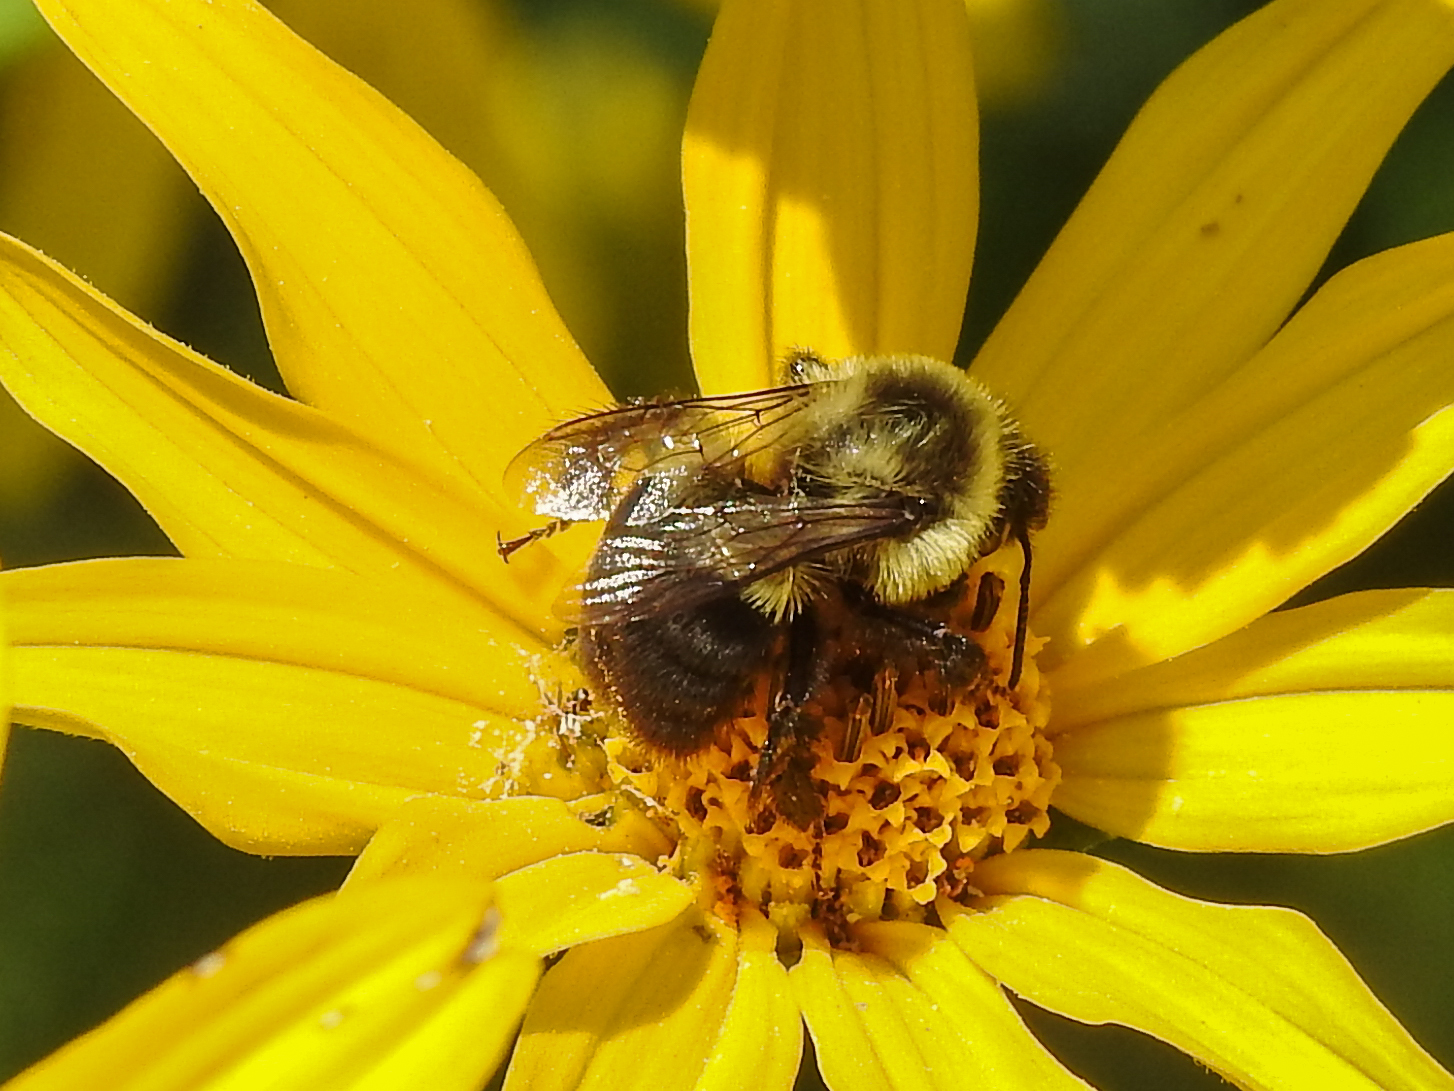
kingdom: Animalia
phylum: Arthropoda
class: Insecta
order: Hymenoptera
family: Apidae
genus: Bombus
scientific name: Bombus impatiens
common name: Common eastern bumble bee
